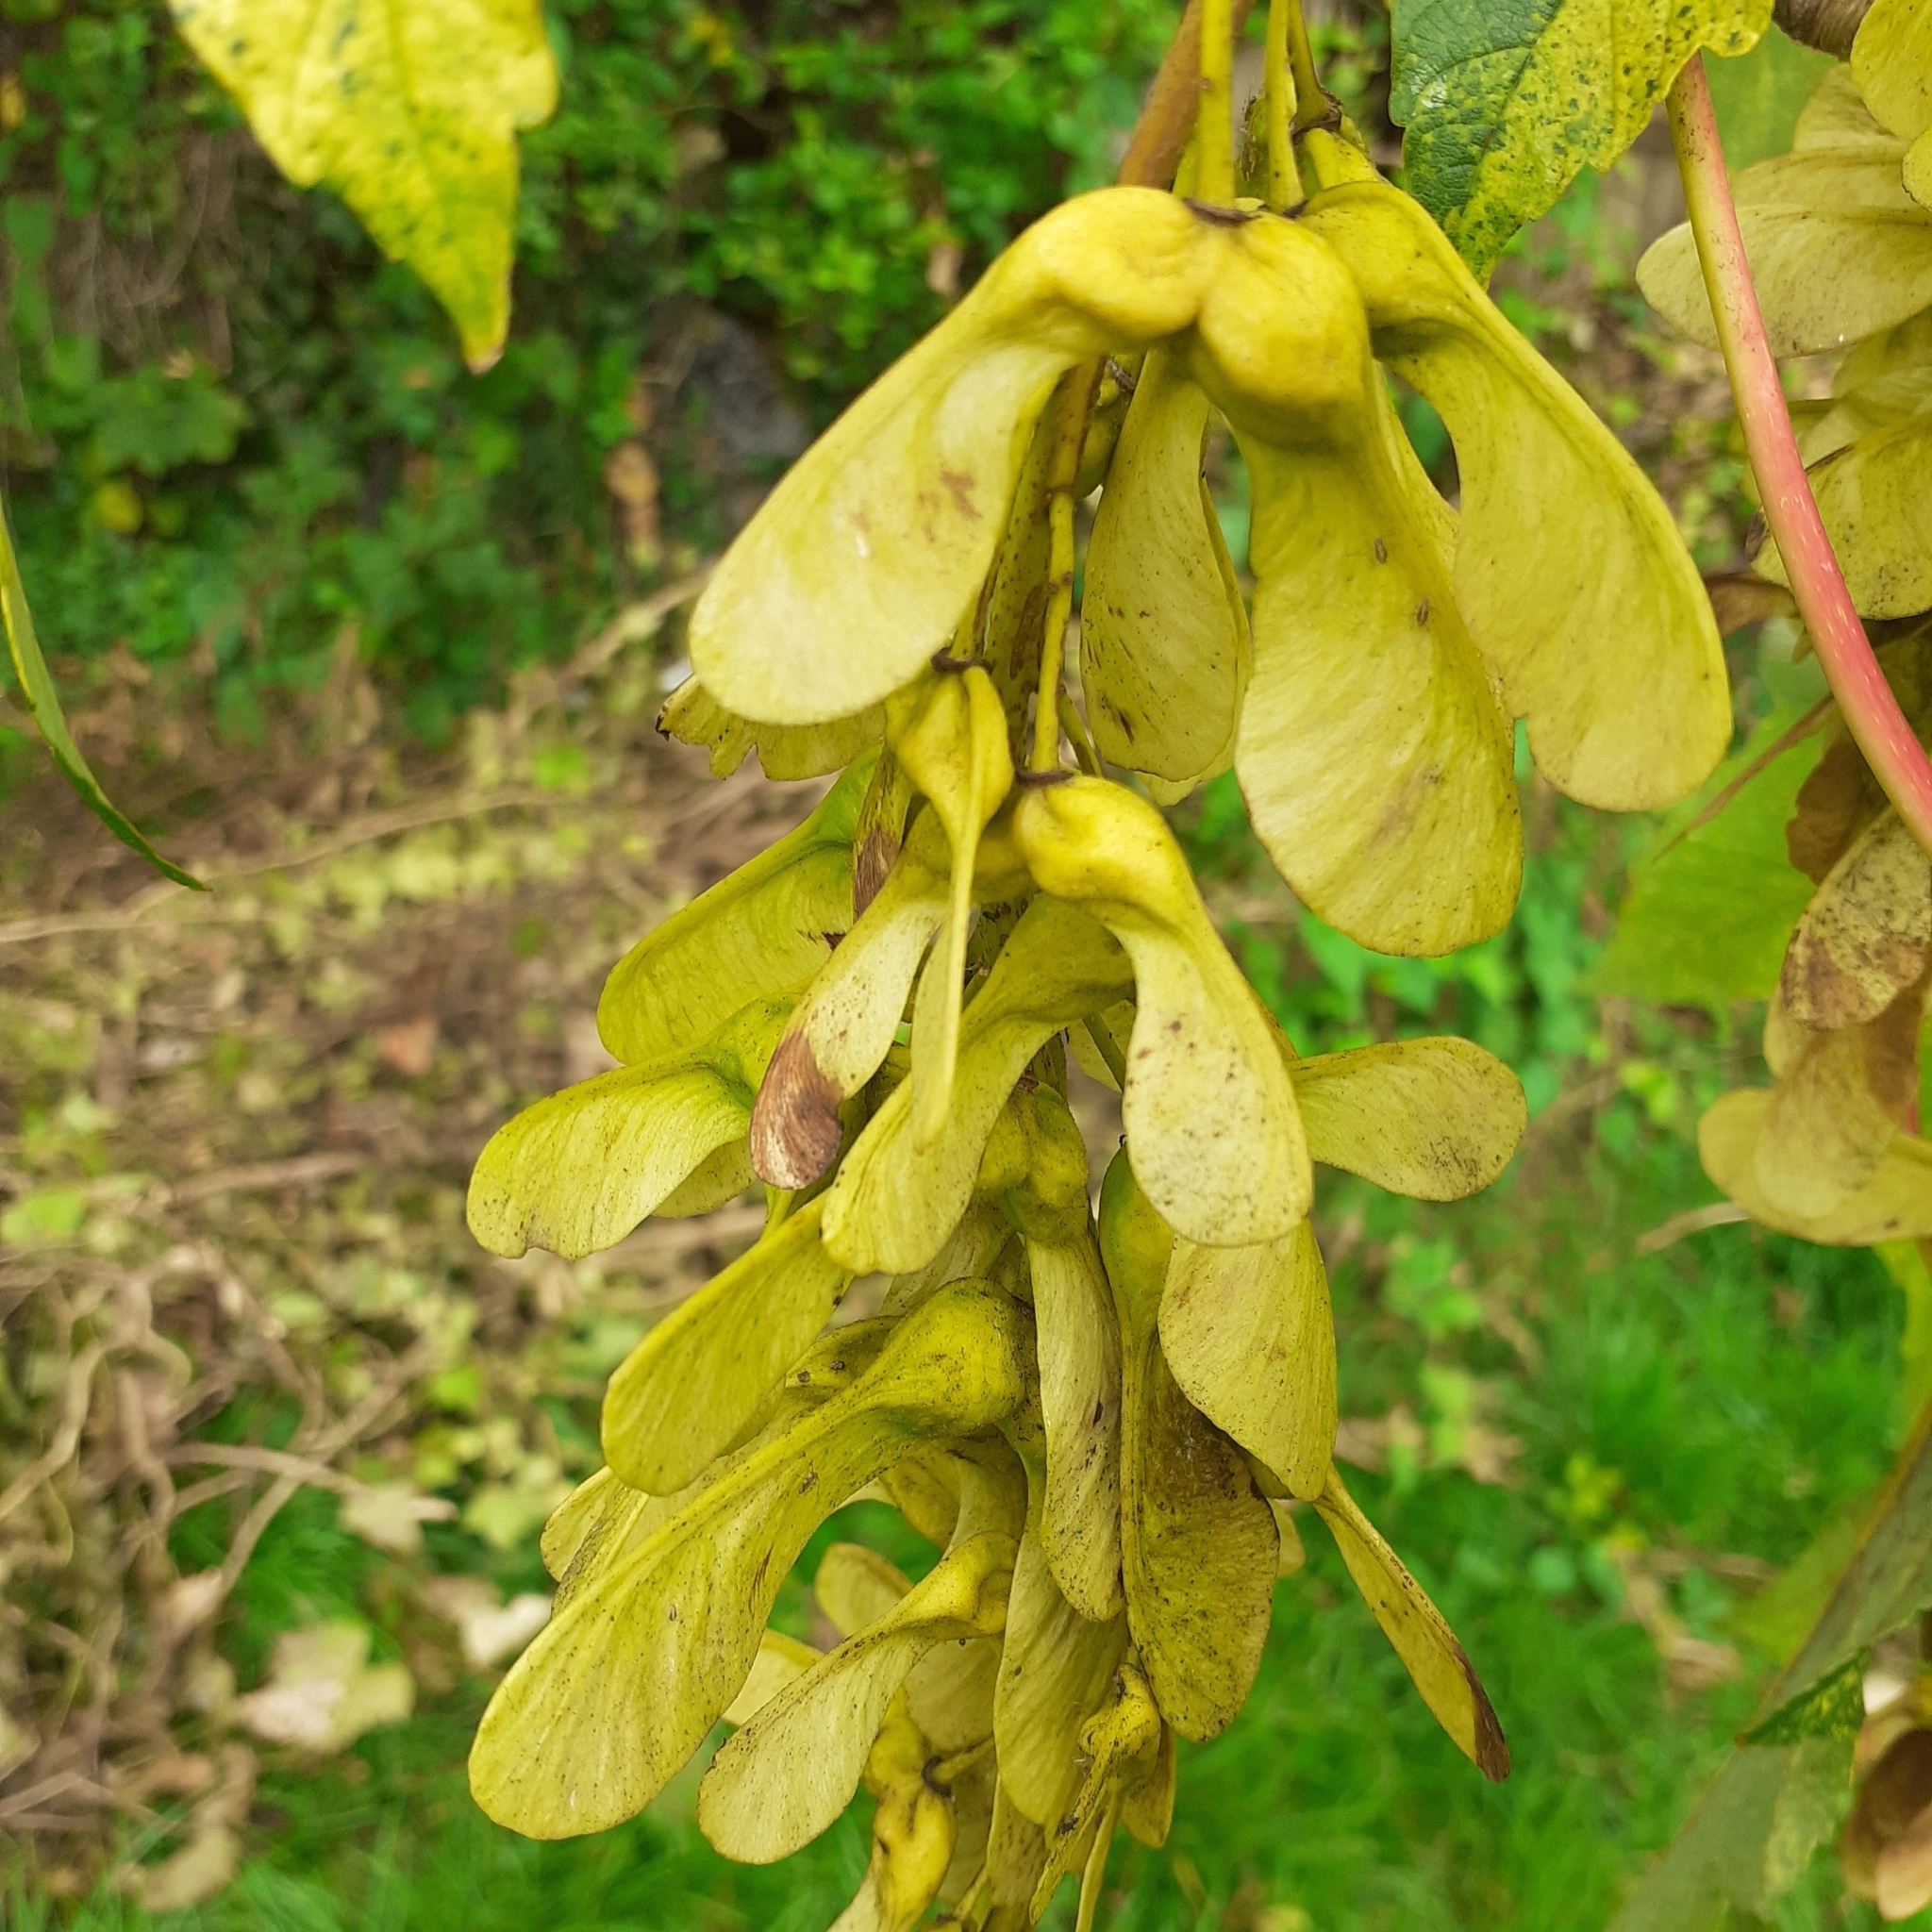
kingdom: Plantae
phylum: Tracheophyta
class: Magnoliopsida
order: Sapindales
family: Sapindaceae
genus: Acer
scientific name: Acer pseudoplatanus
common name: Sycamore
